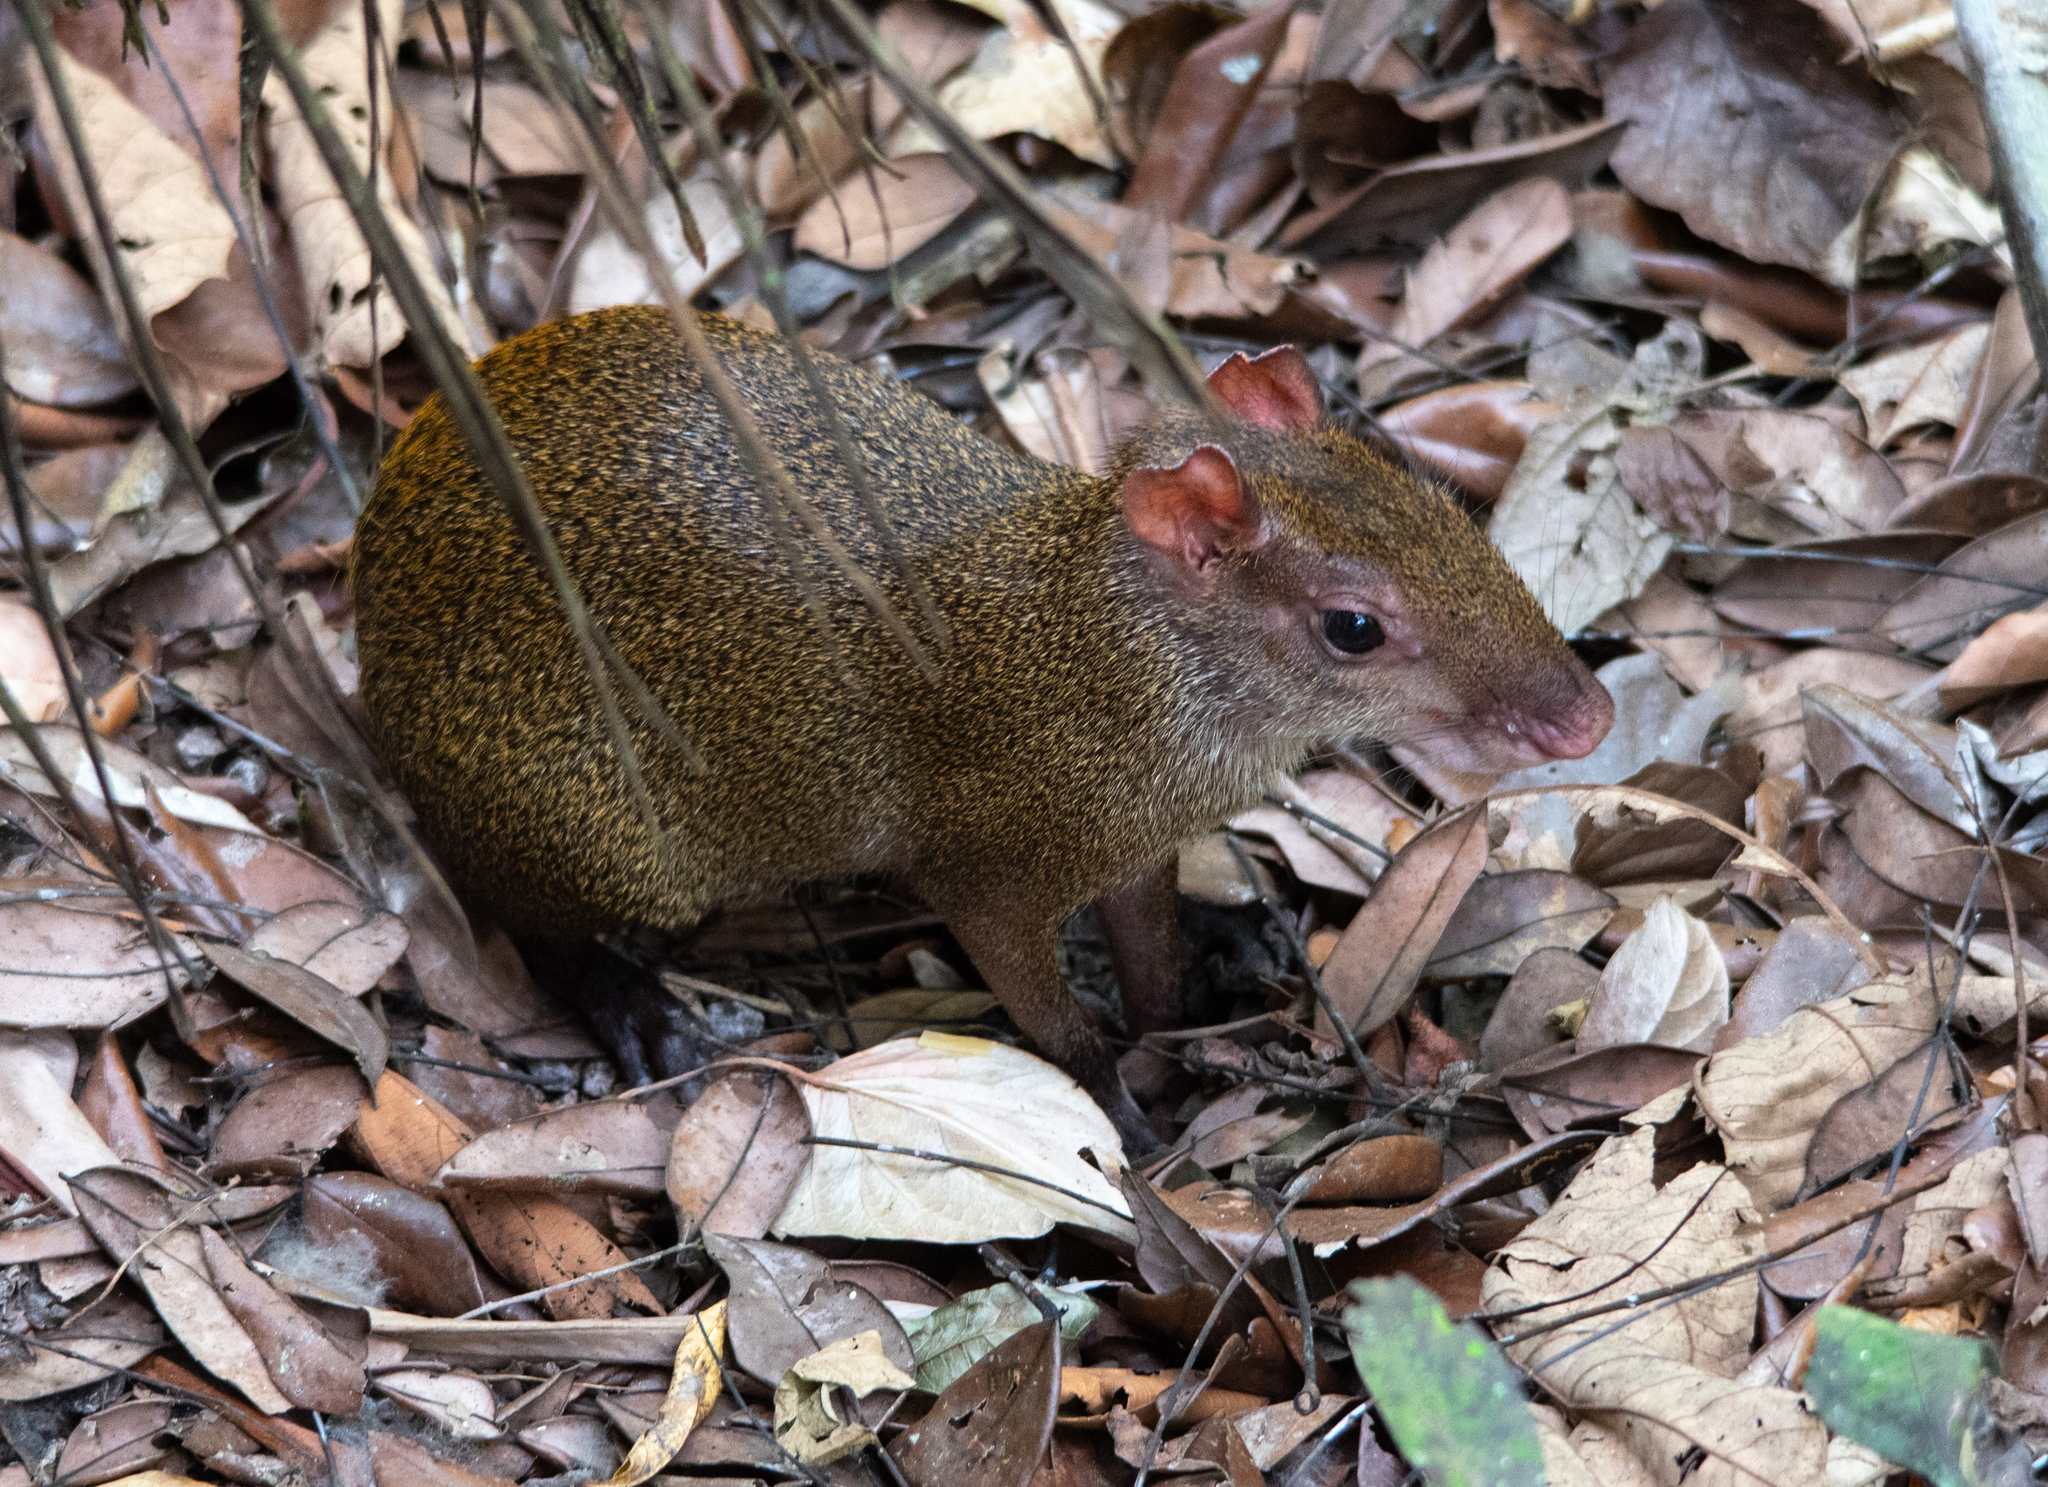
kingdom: Animalia
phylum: Chordata
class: Mammalia
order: Rodentia
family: Dasyproctidae
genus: Dasyprocta
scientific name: Dasyprocta punctata
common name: Central american agouti
